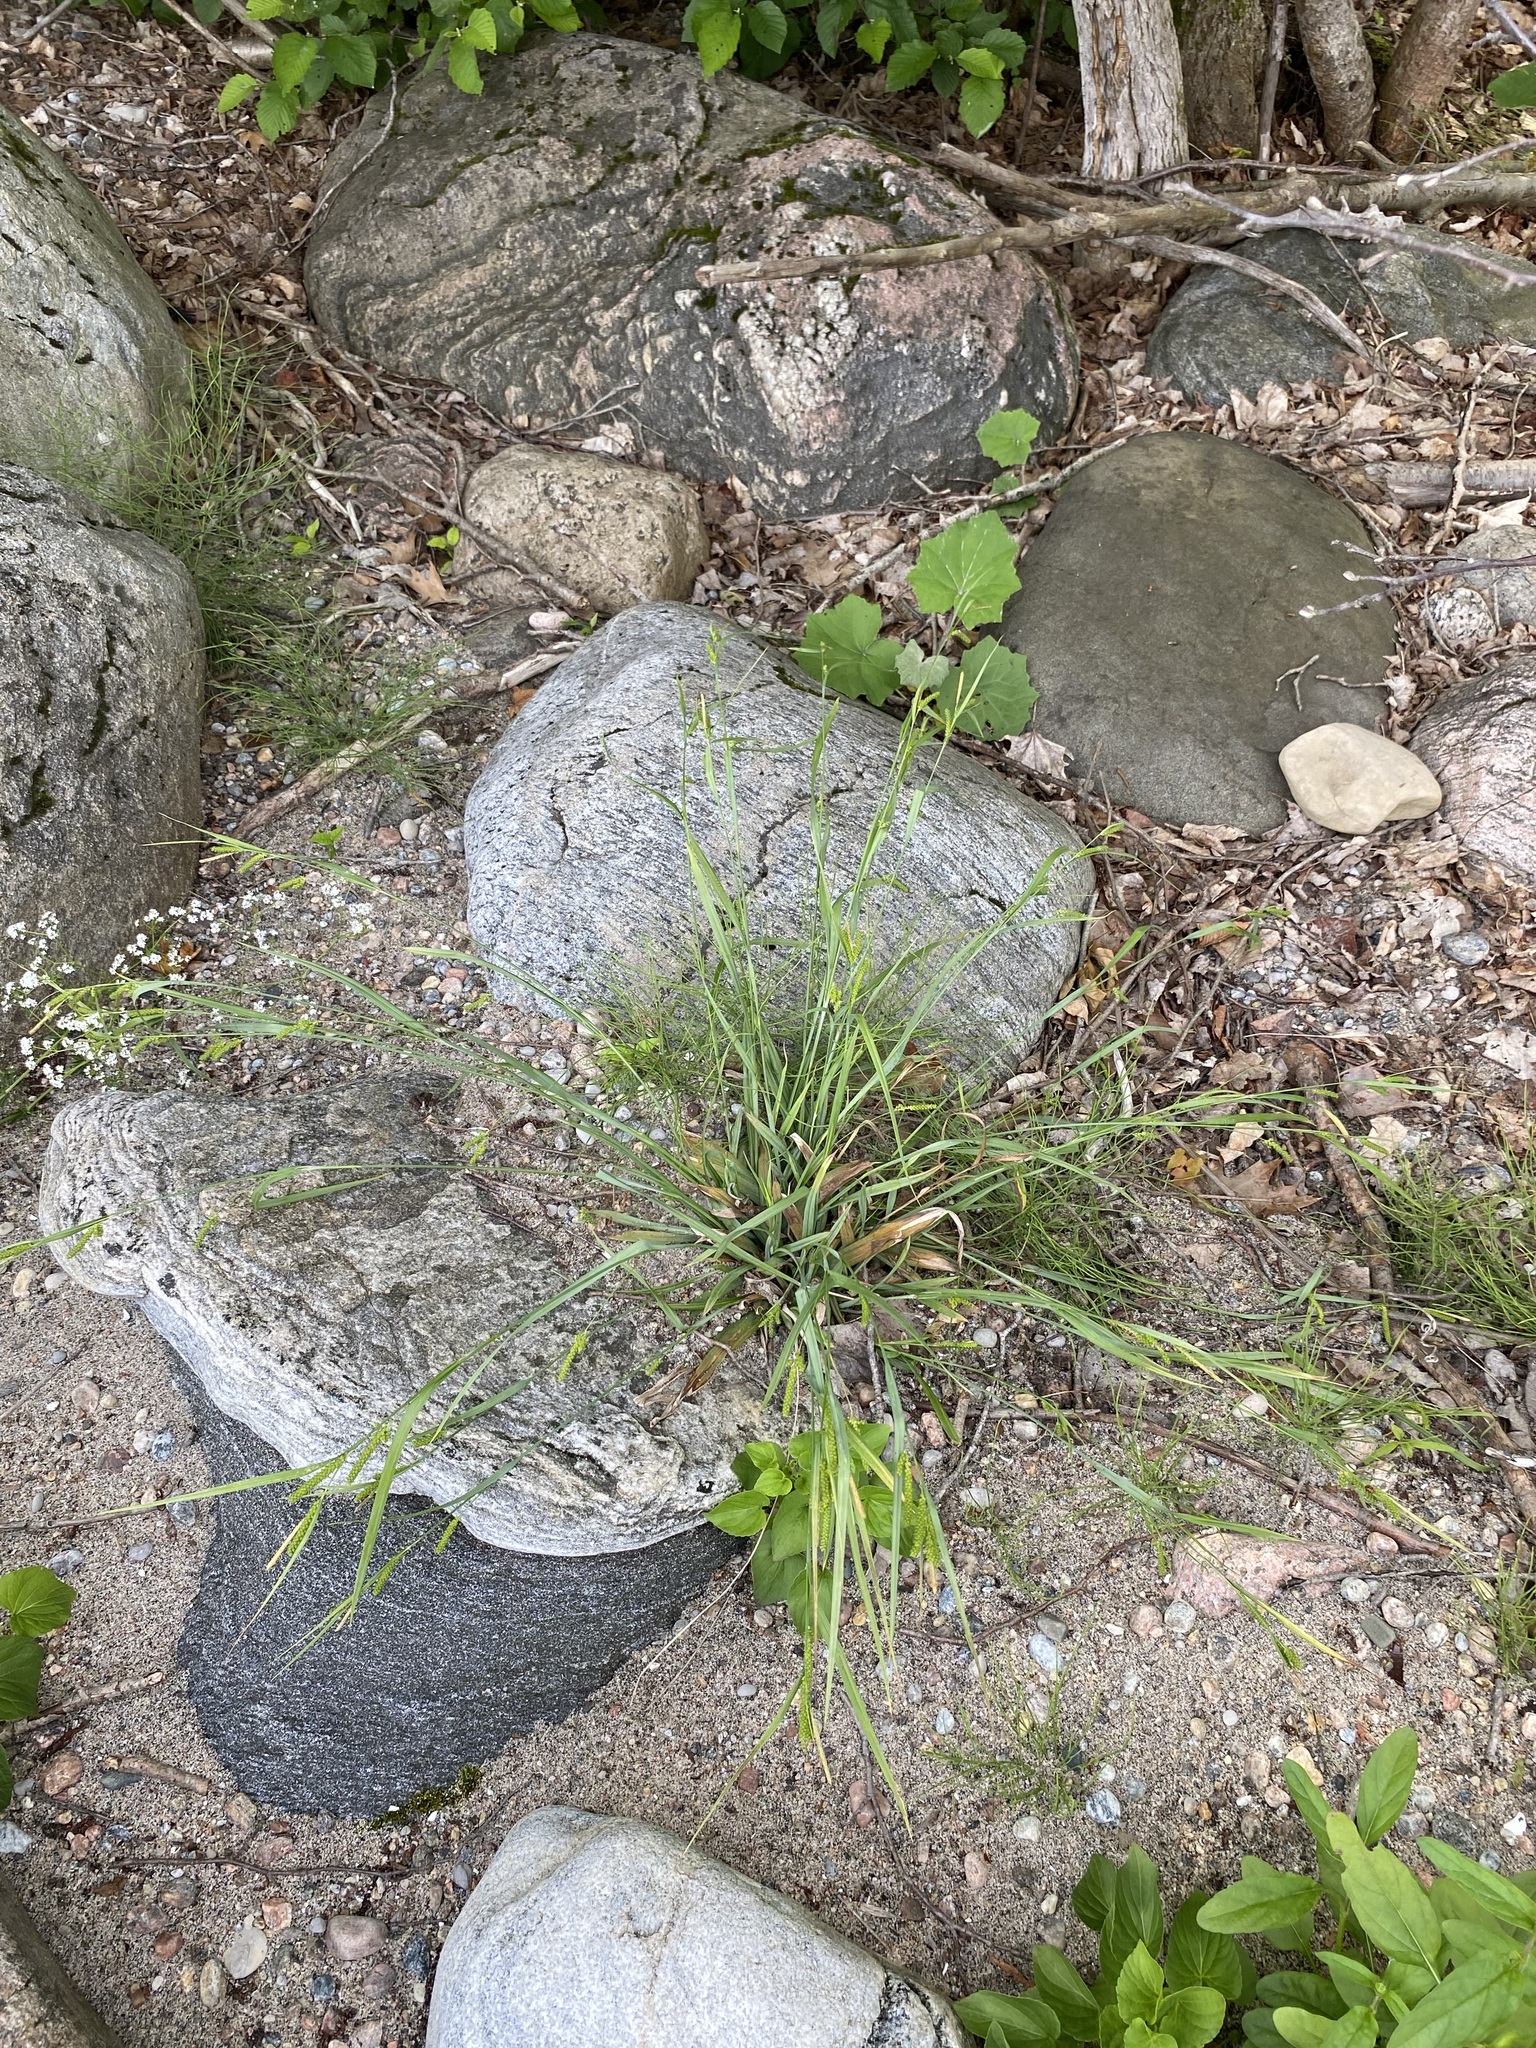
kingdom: Plantae
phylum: Tracheophyta
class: Liliopsida
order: Poales
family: Cyperaceae
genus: Carex
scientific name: Carex granularis
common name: Granular sedge
